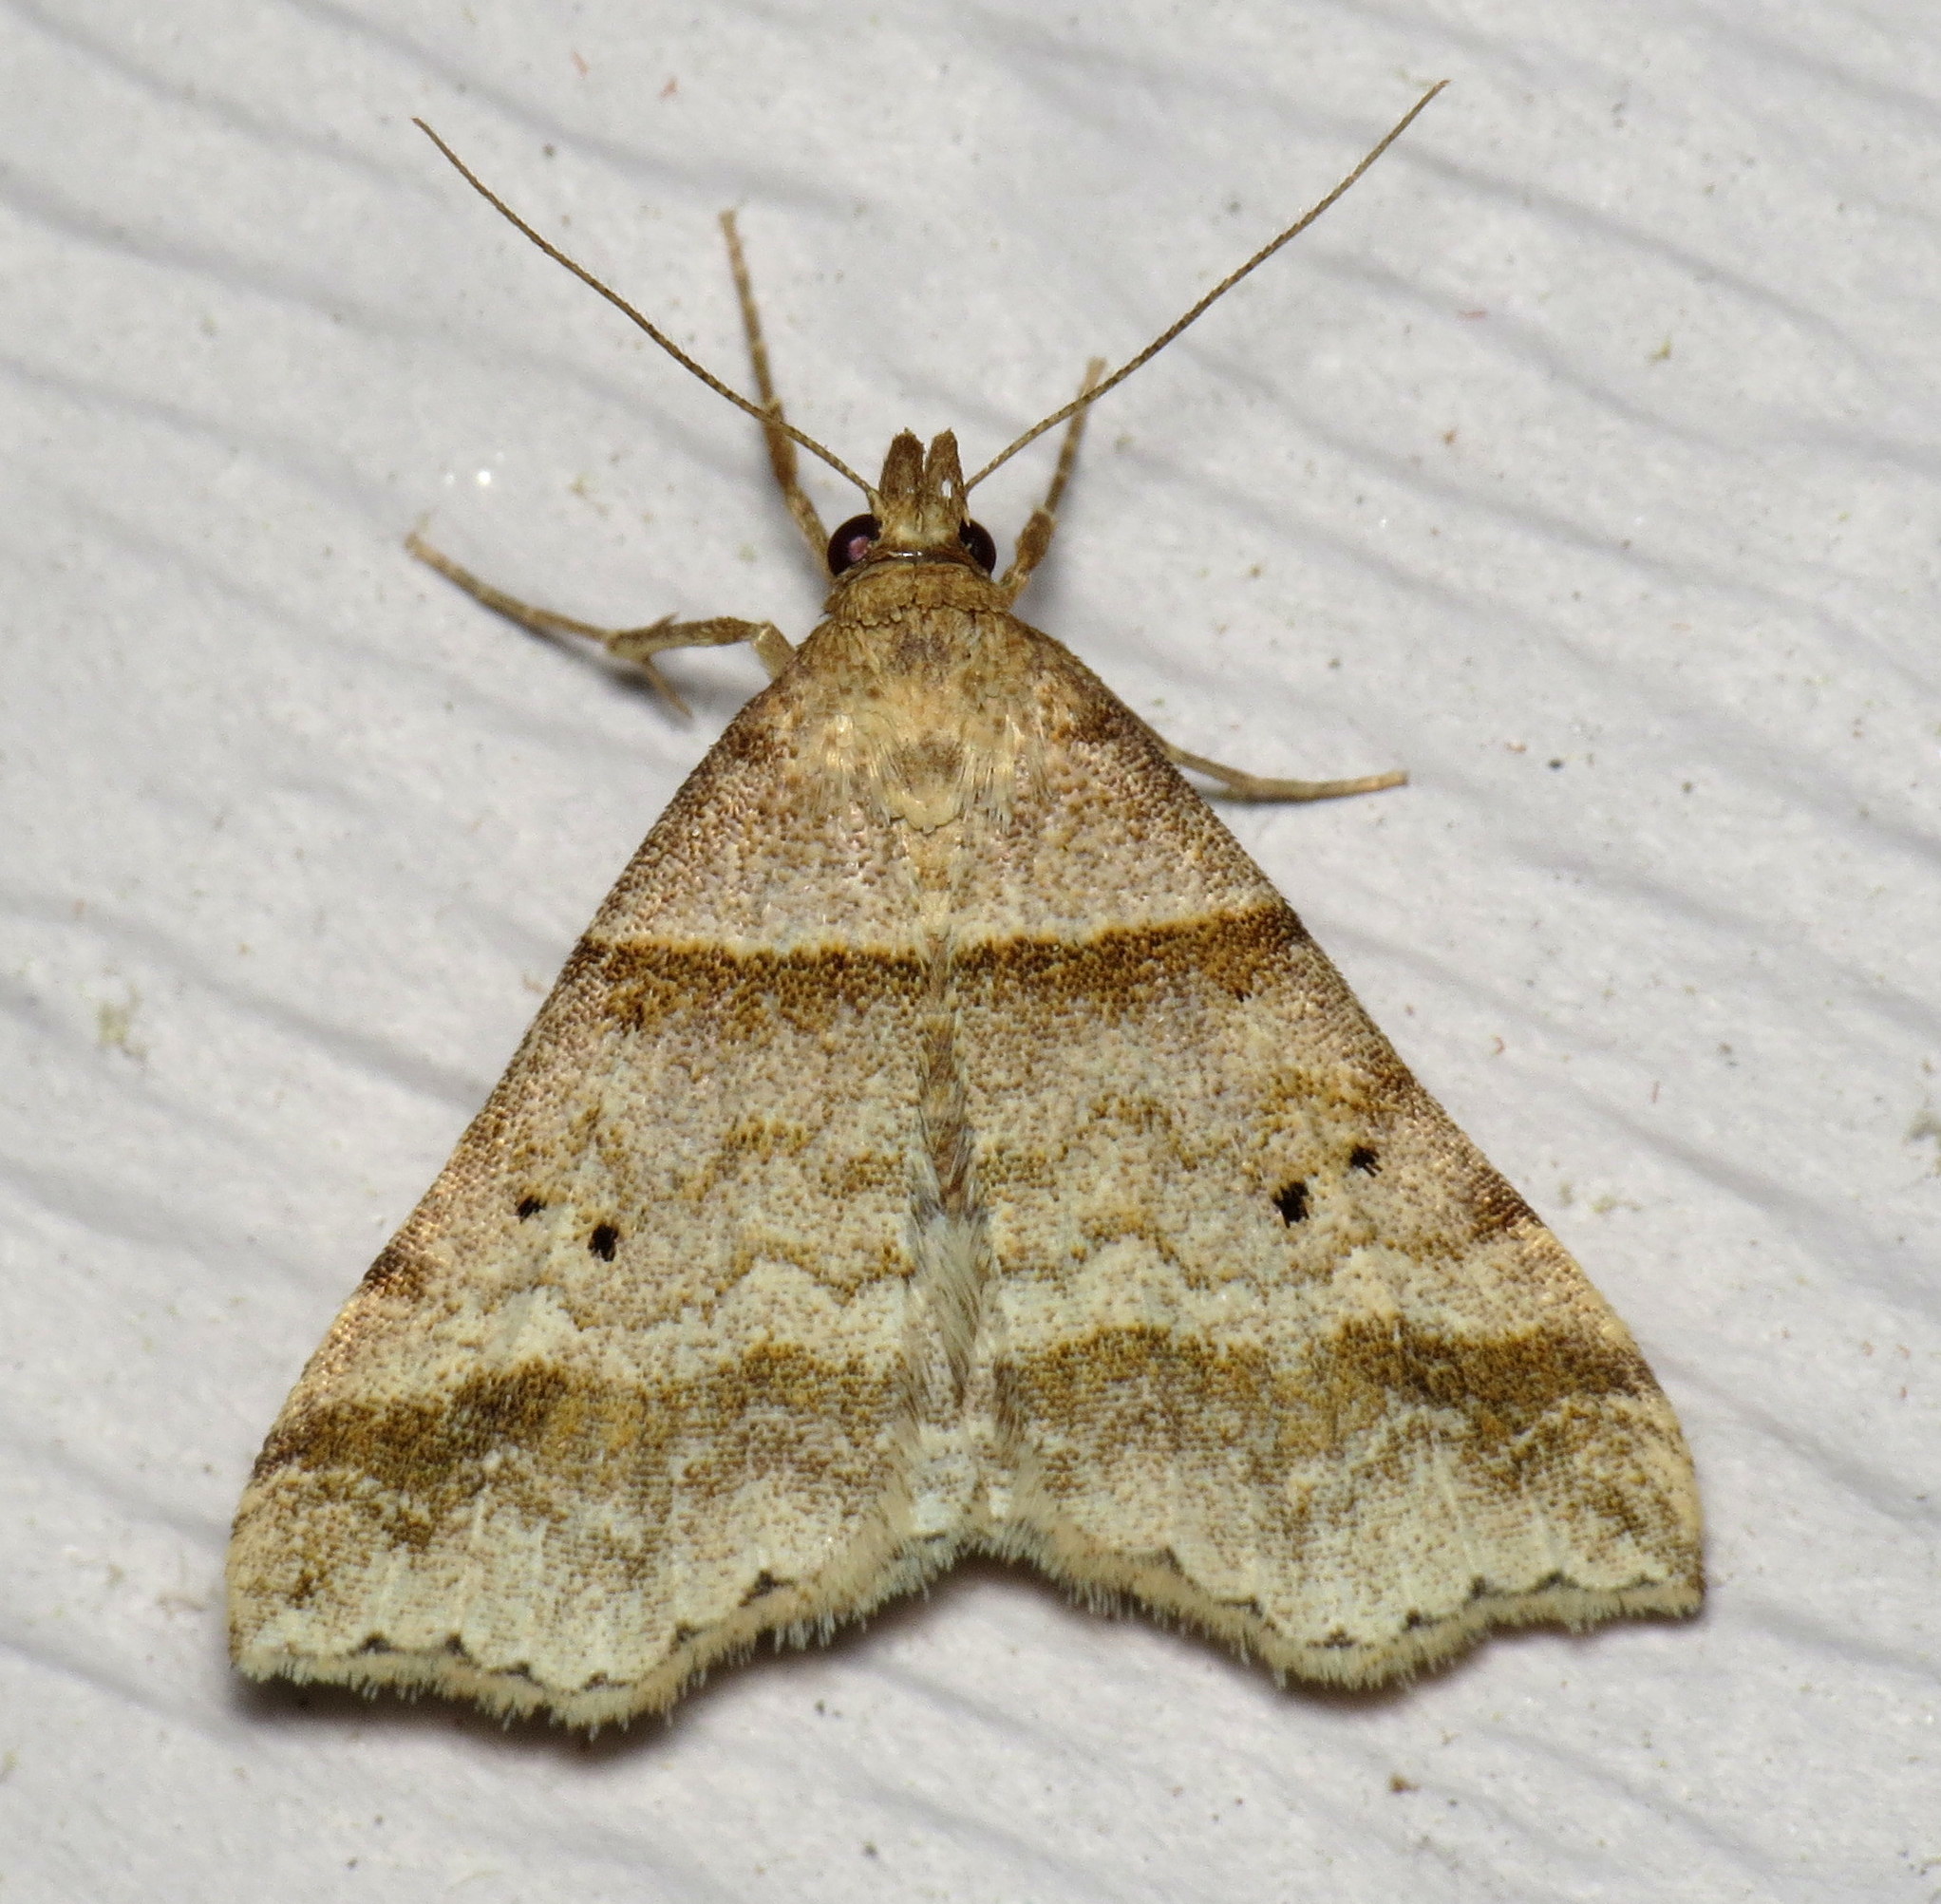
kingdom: Animalia
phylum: Arthropoda
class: Insecta
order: Lepidoptera
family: Erebidae
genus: Phaeolita
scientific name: Phaeolita pyramusalis
